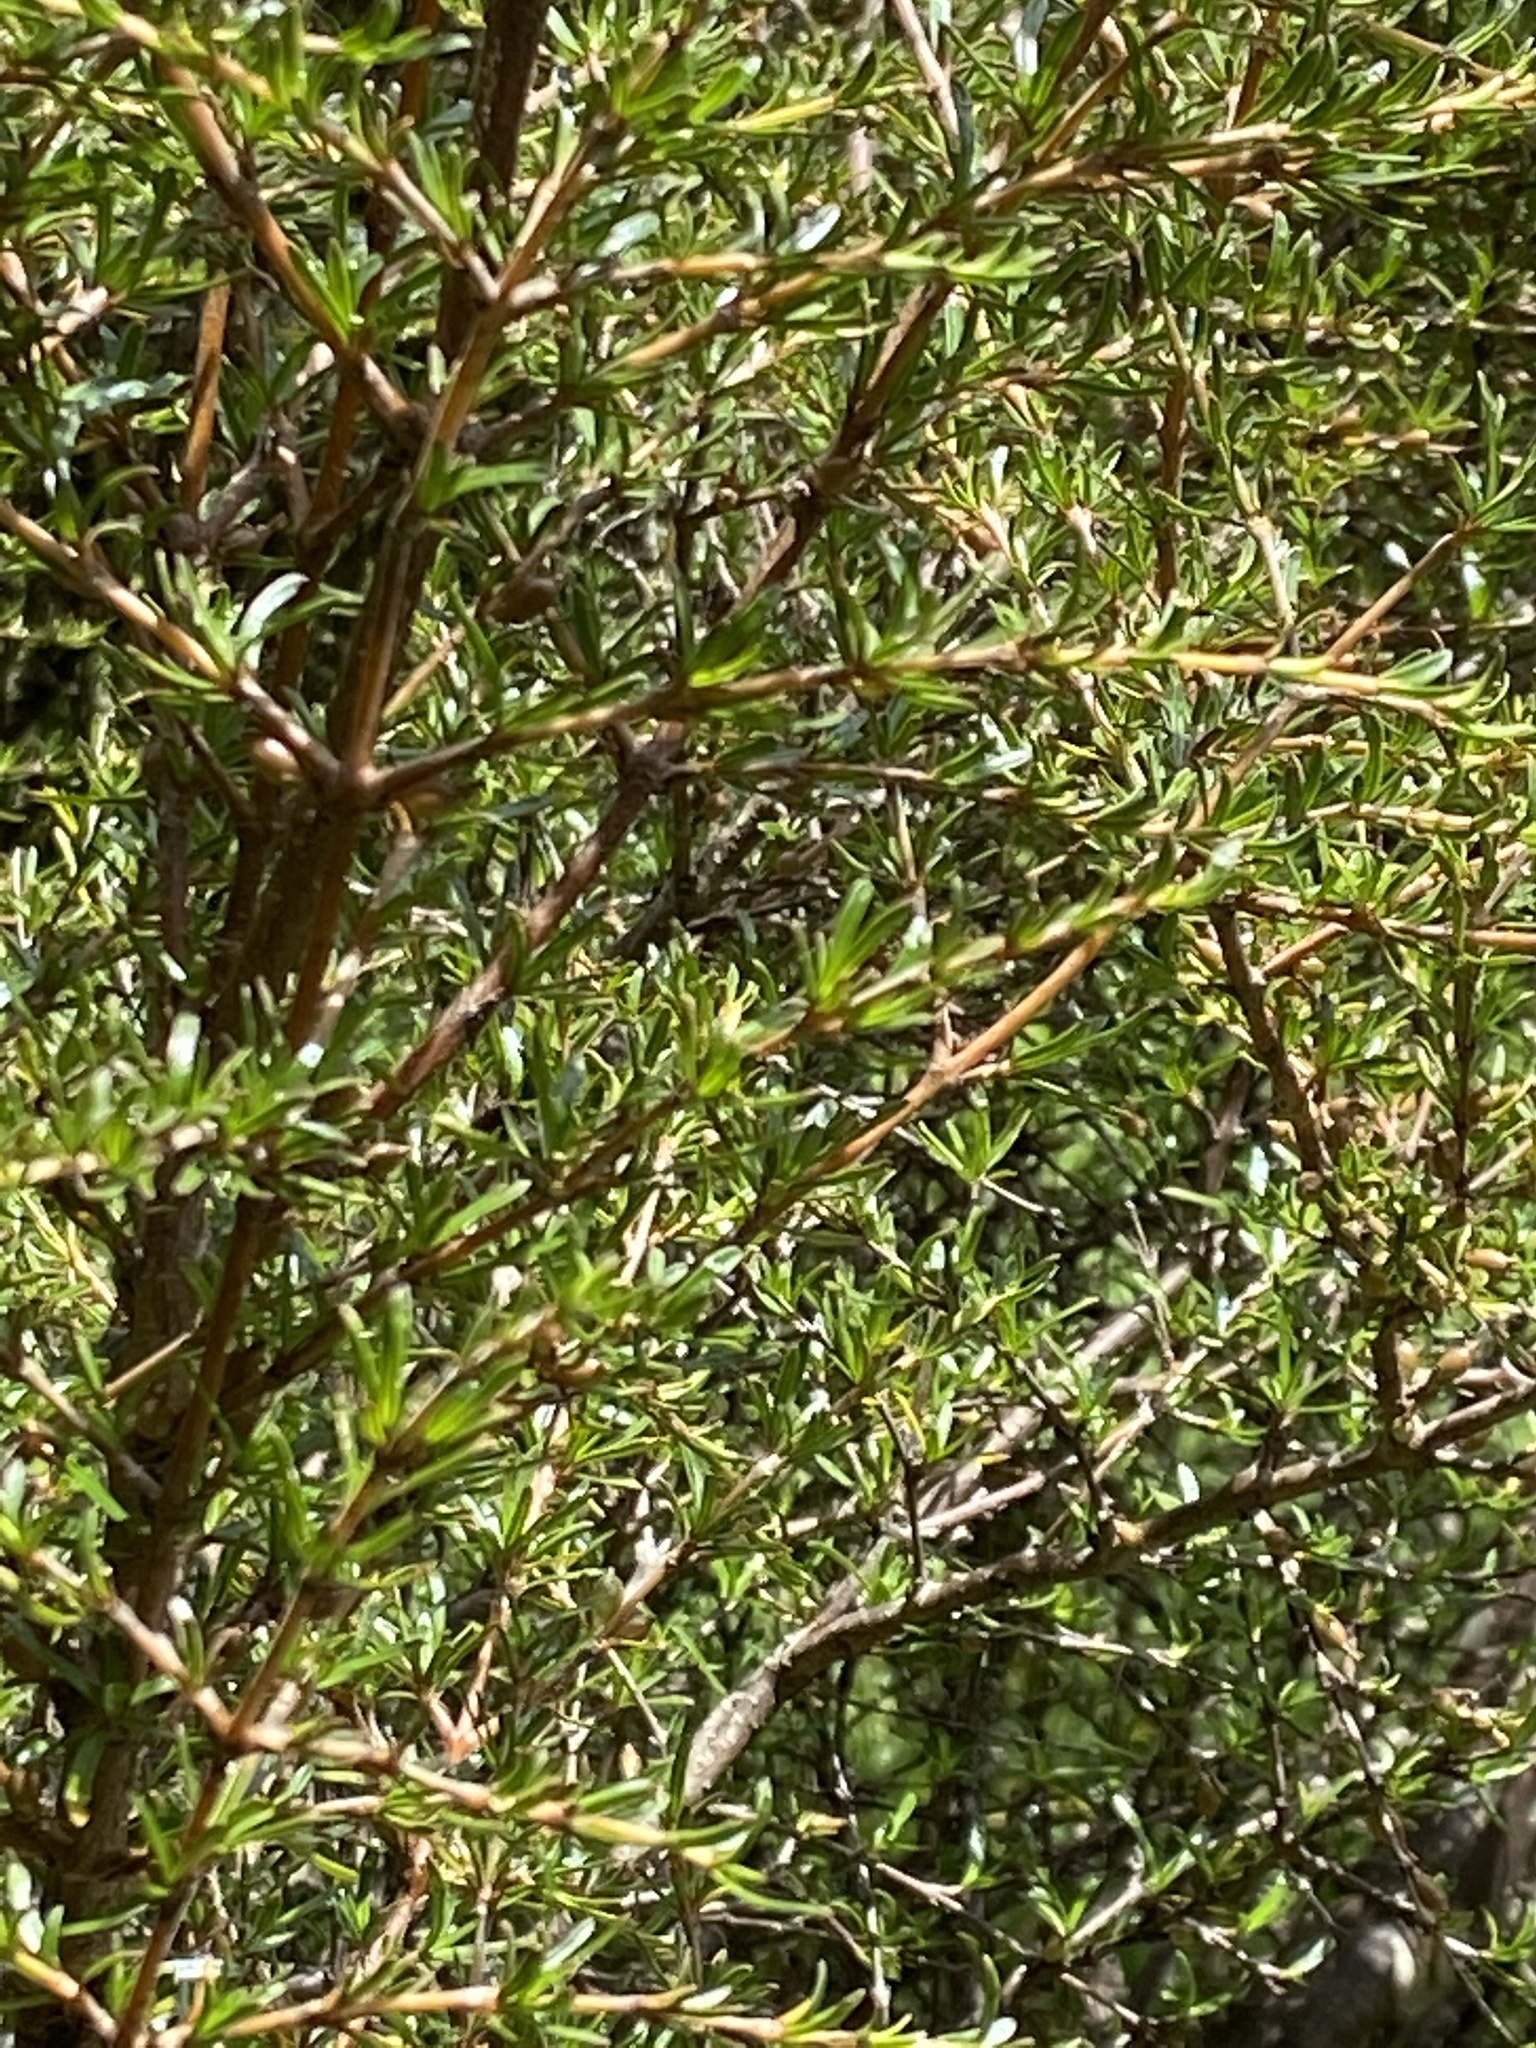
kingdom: Plantae
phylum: Tracheophyta
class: Magnoliopsida
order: Gentianales
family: Rubiaceae
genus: Coprosma
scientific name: Coprosma rugosa
